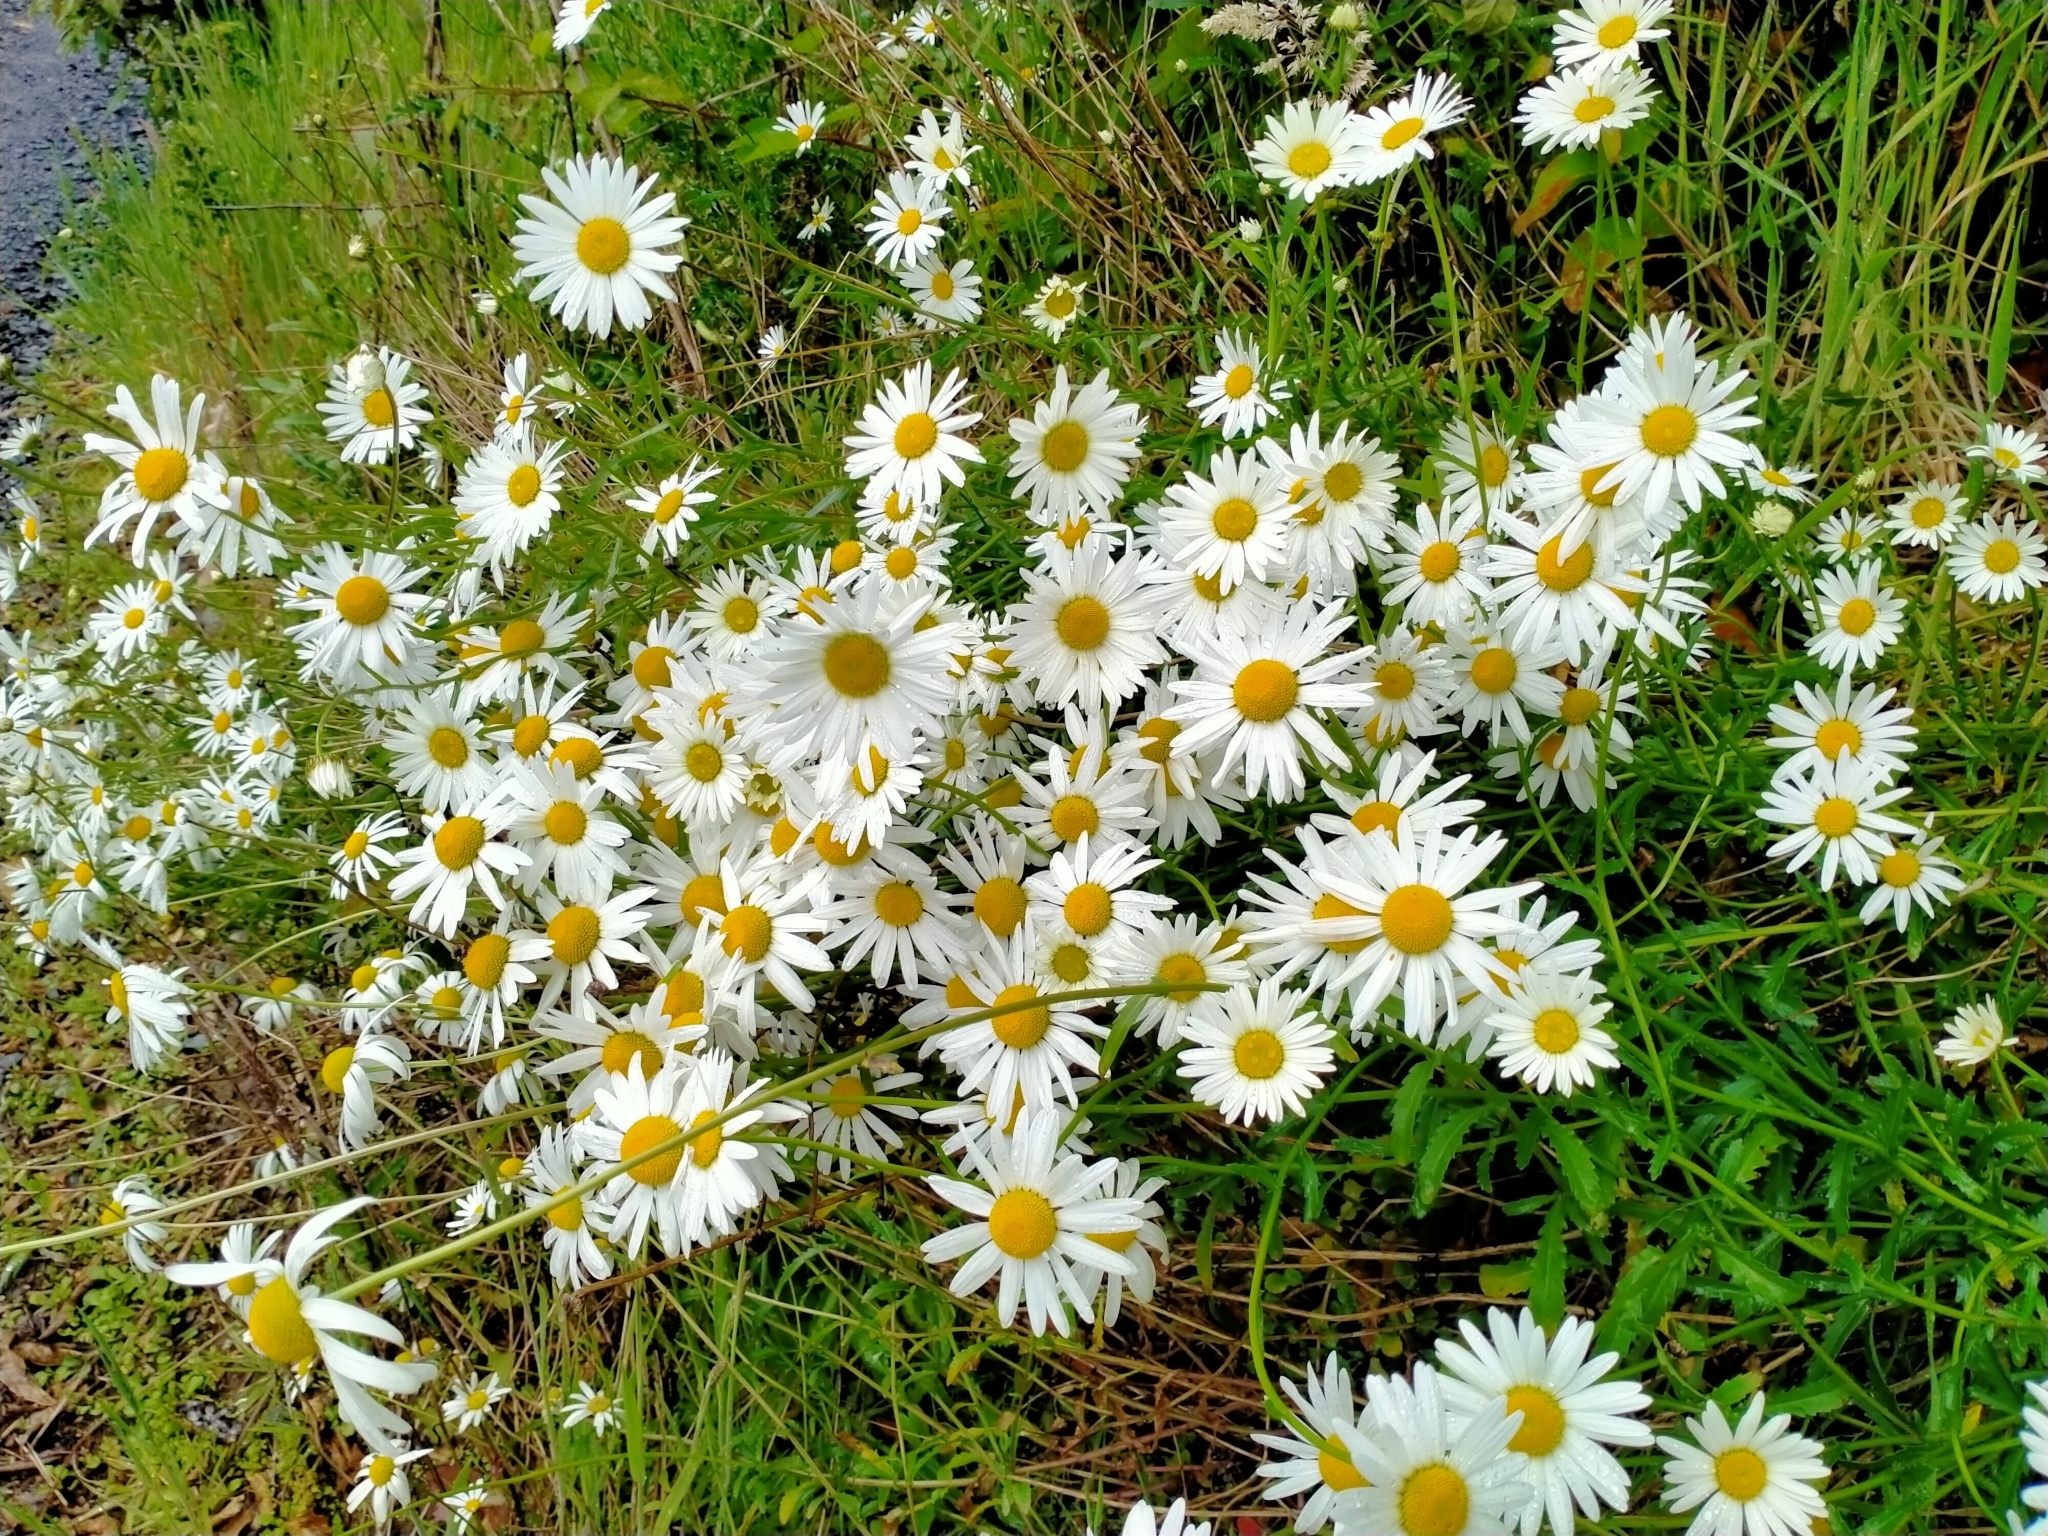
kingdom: Plantae
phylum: Tracheophyta
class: Magnoliopsida
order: Asterales
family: Asteraceae
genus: Leucanthemum
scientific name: Leucanthemum vulgare
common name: Oxeye daisy
